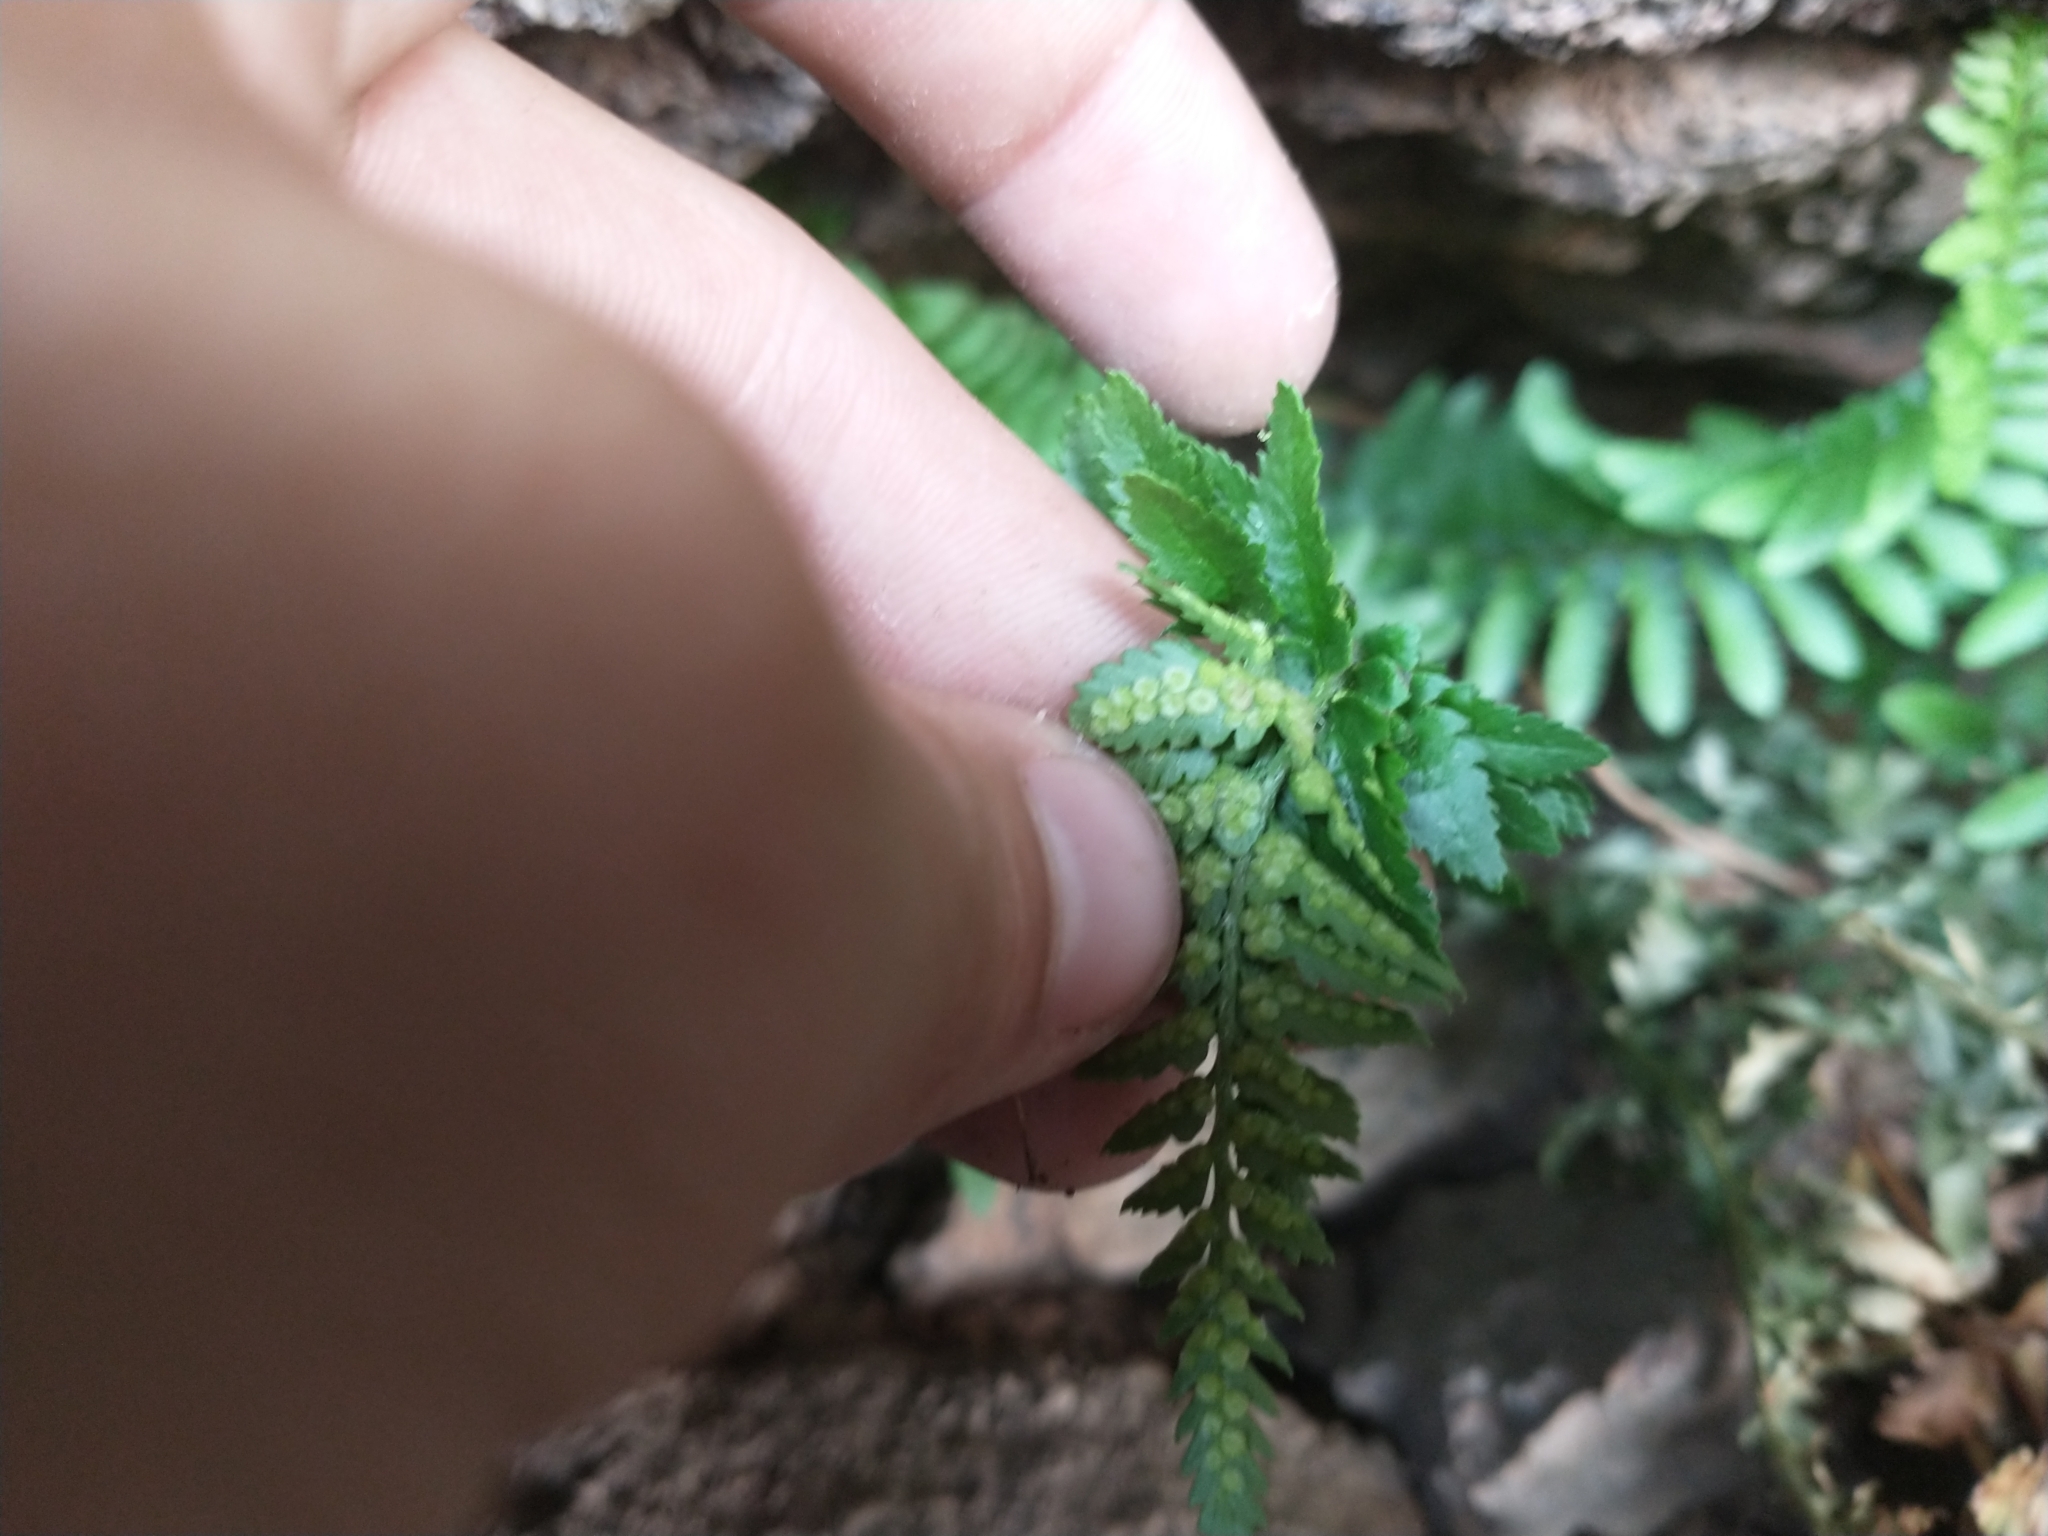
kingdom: Plantae
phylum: Tracheophyta
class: Polypodiopsida
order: Polypodiales
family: Dryopteridaceae
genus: Polystichum
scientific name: Polystichum scopulinum
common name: Eaton's shield fern
